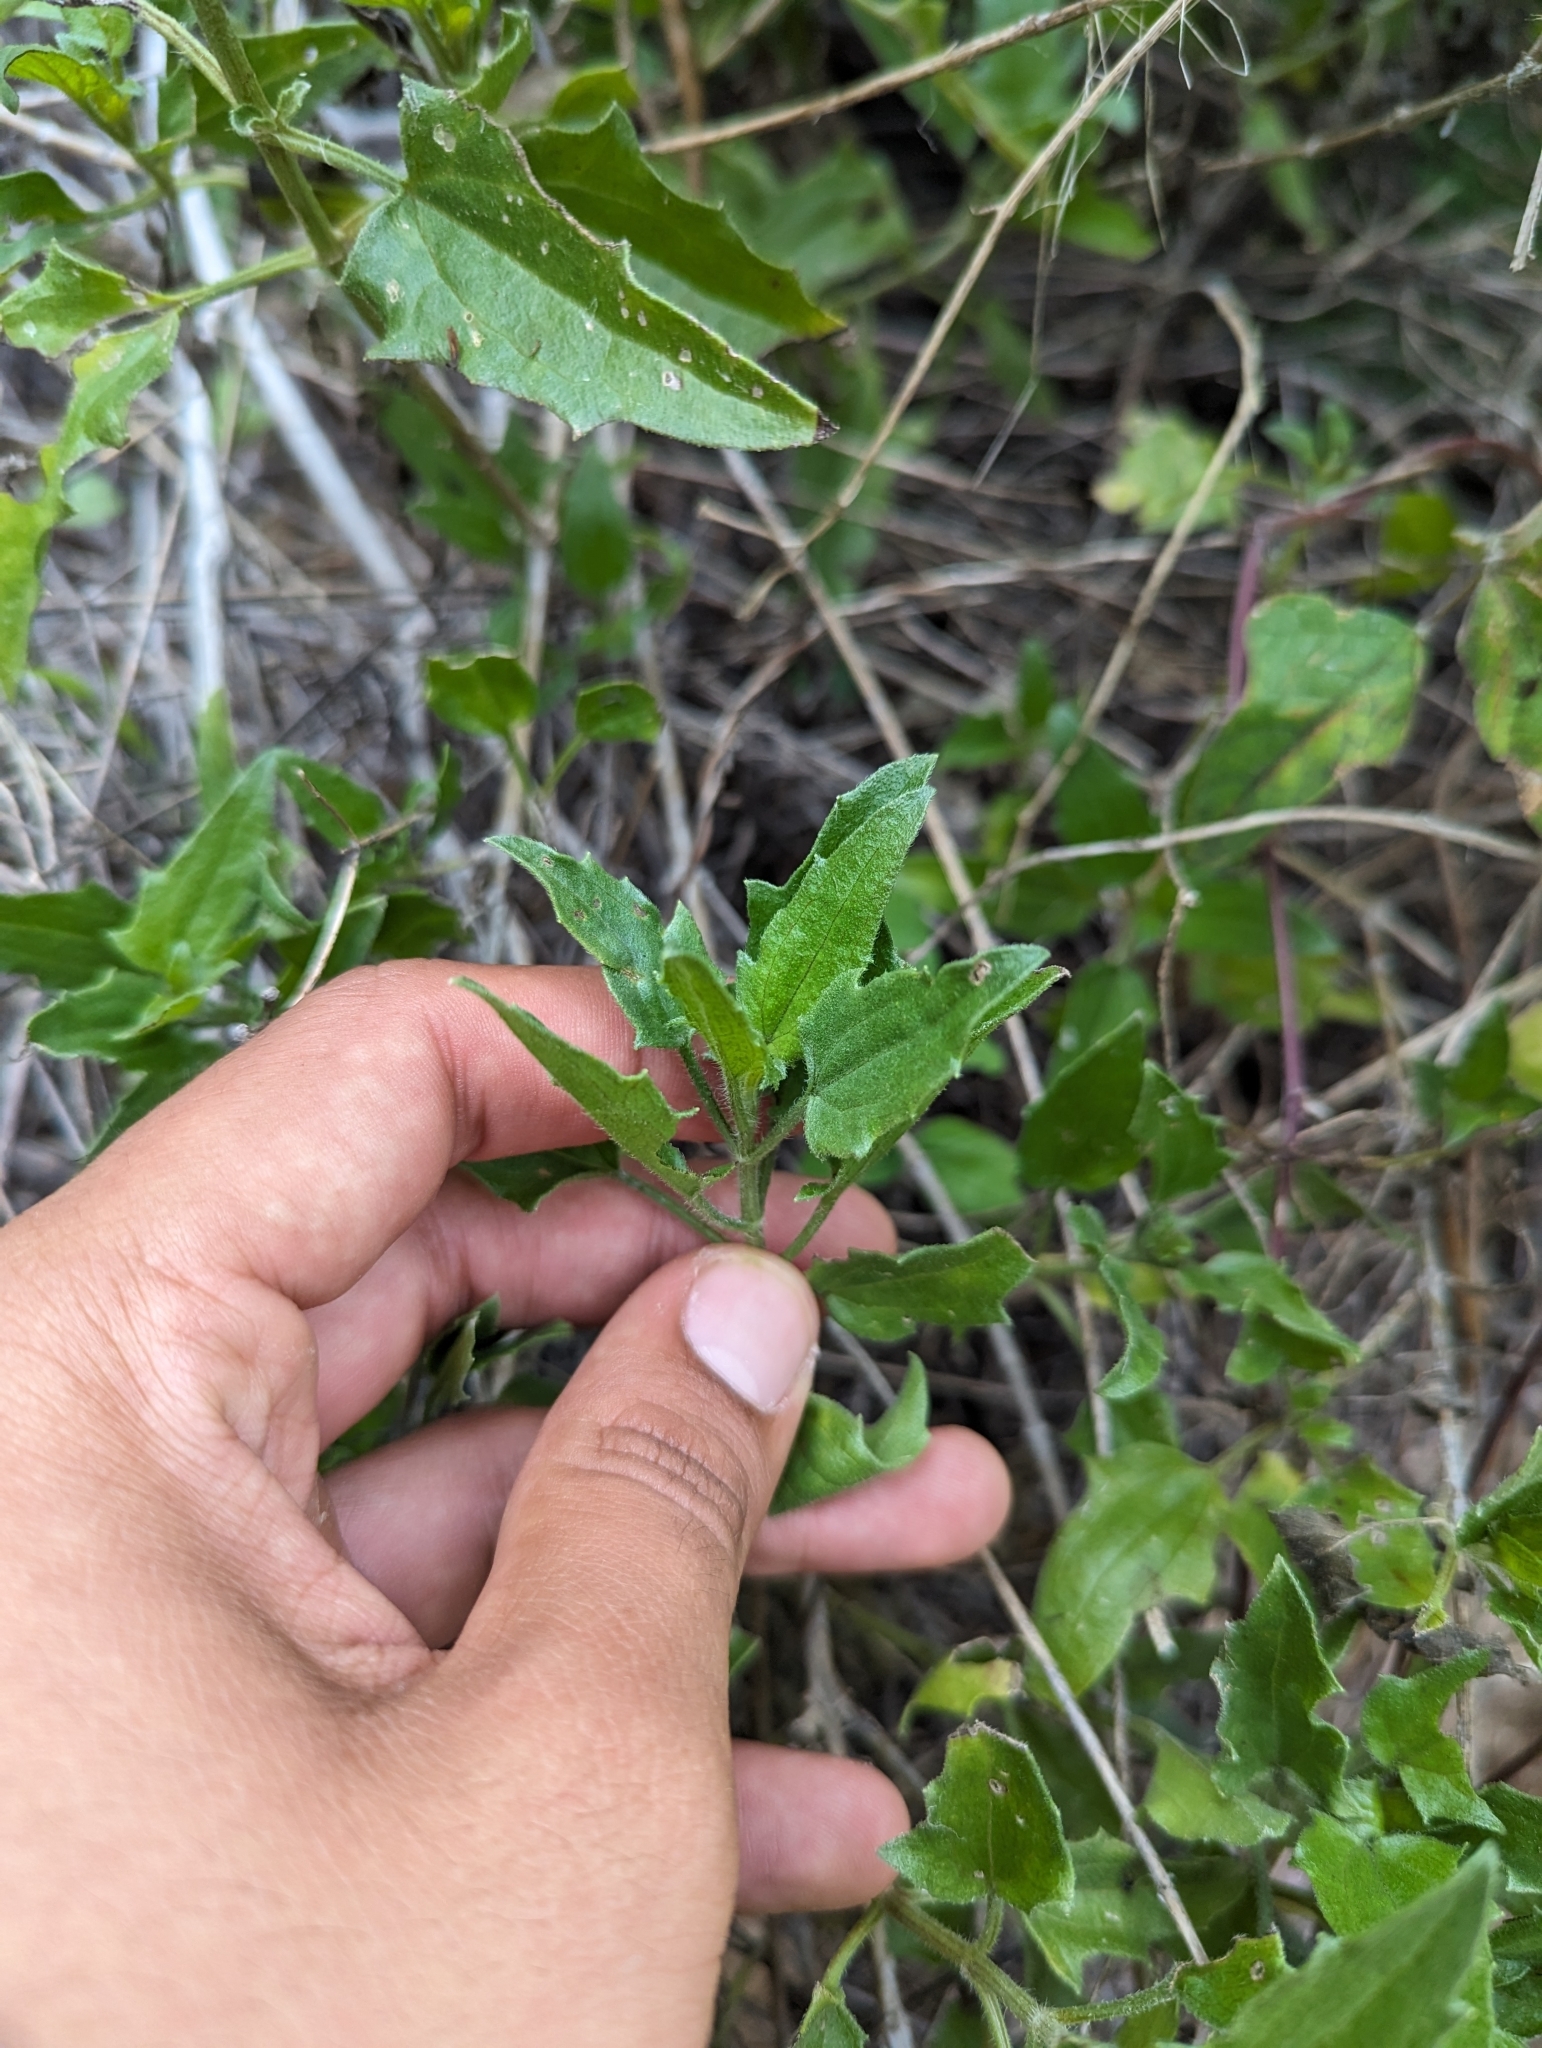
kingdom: Plantae
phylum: Tracheophyta
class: Magnoliopsida
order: Asterales
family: Asteraceae
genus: Bebbia
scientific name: Bebbia atriplicifolia
